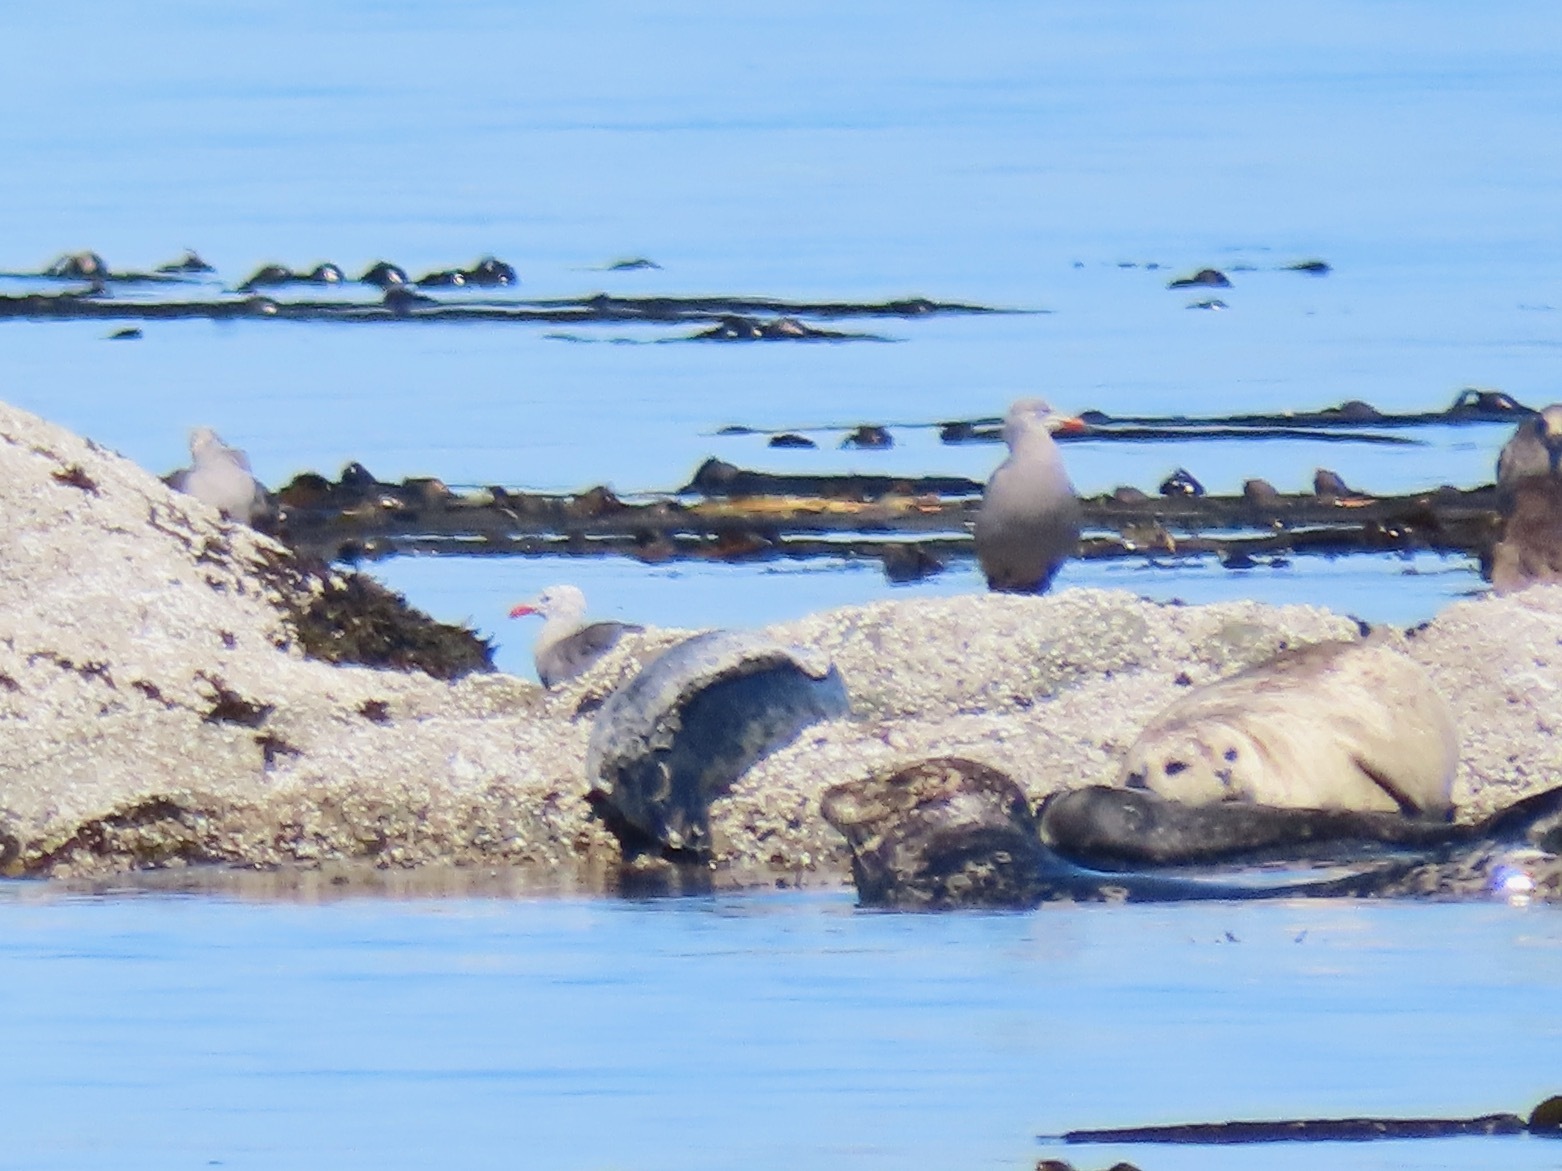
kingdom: Animalia
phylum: Chordata
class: Aves
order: Charadriiformes
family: Laridae
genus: Larus
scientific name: Larus heermanni
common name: Heermann's gull
